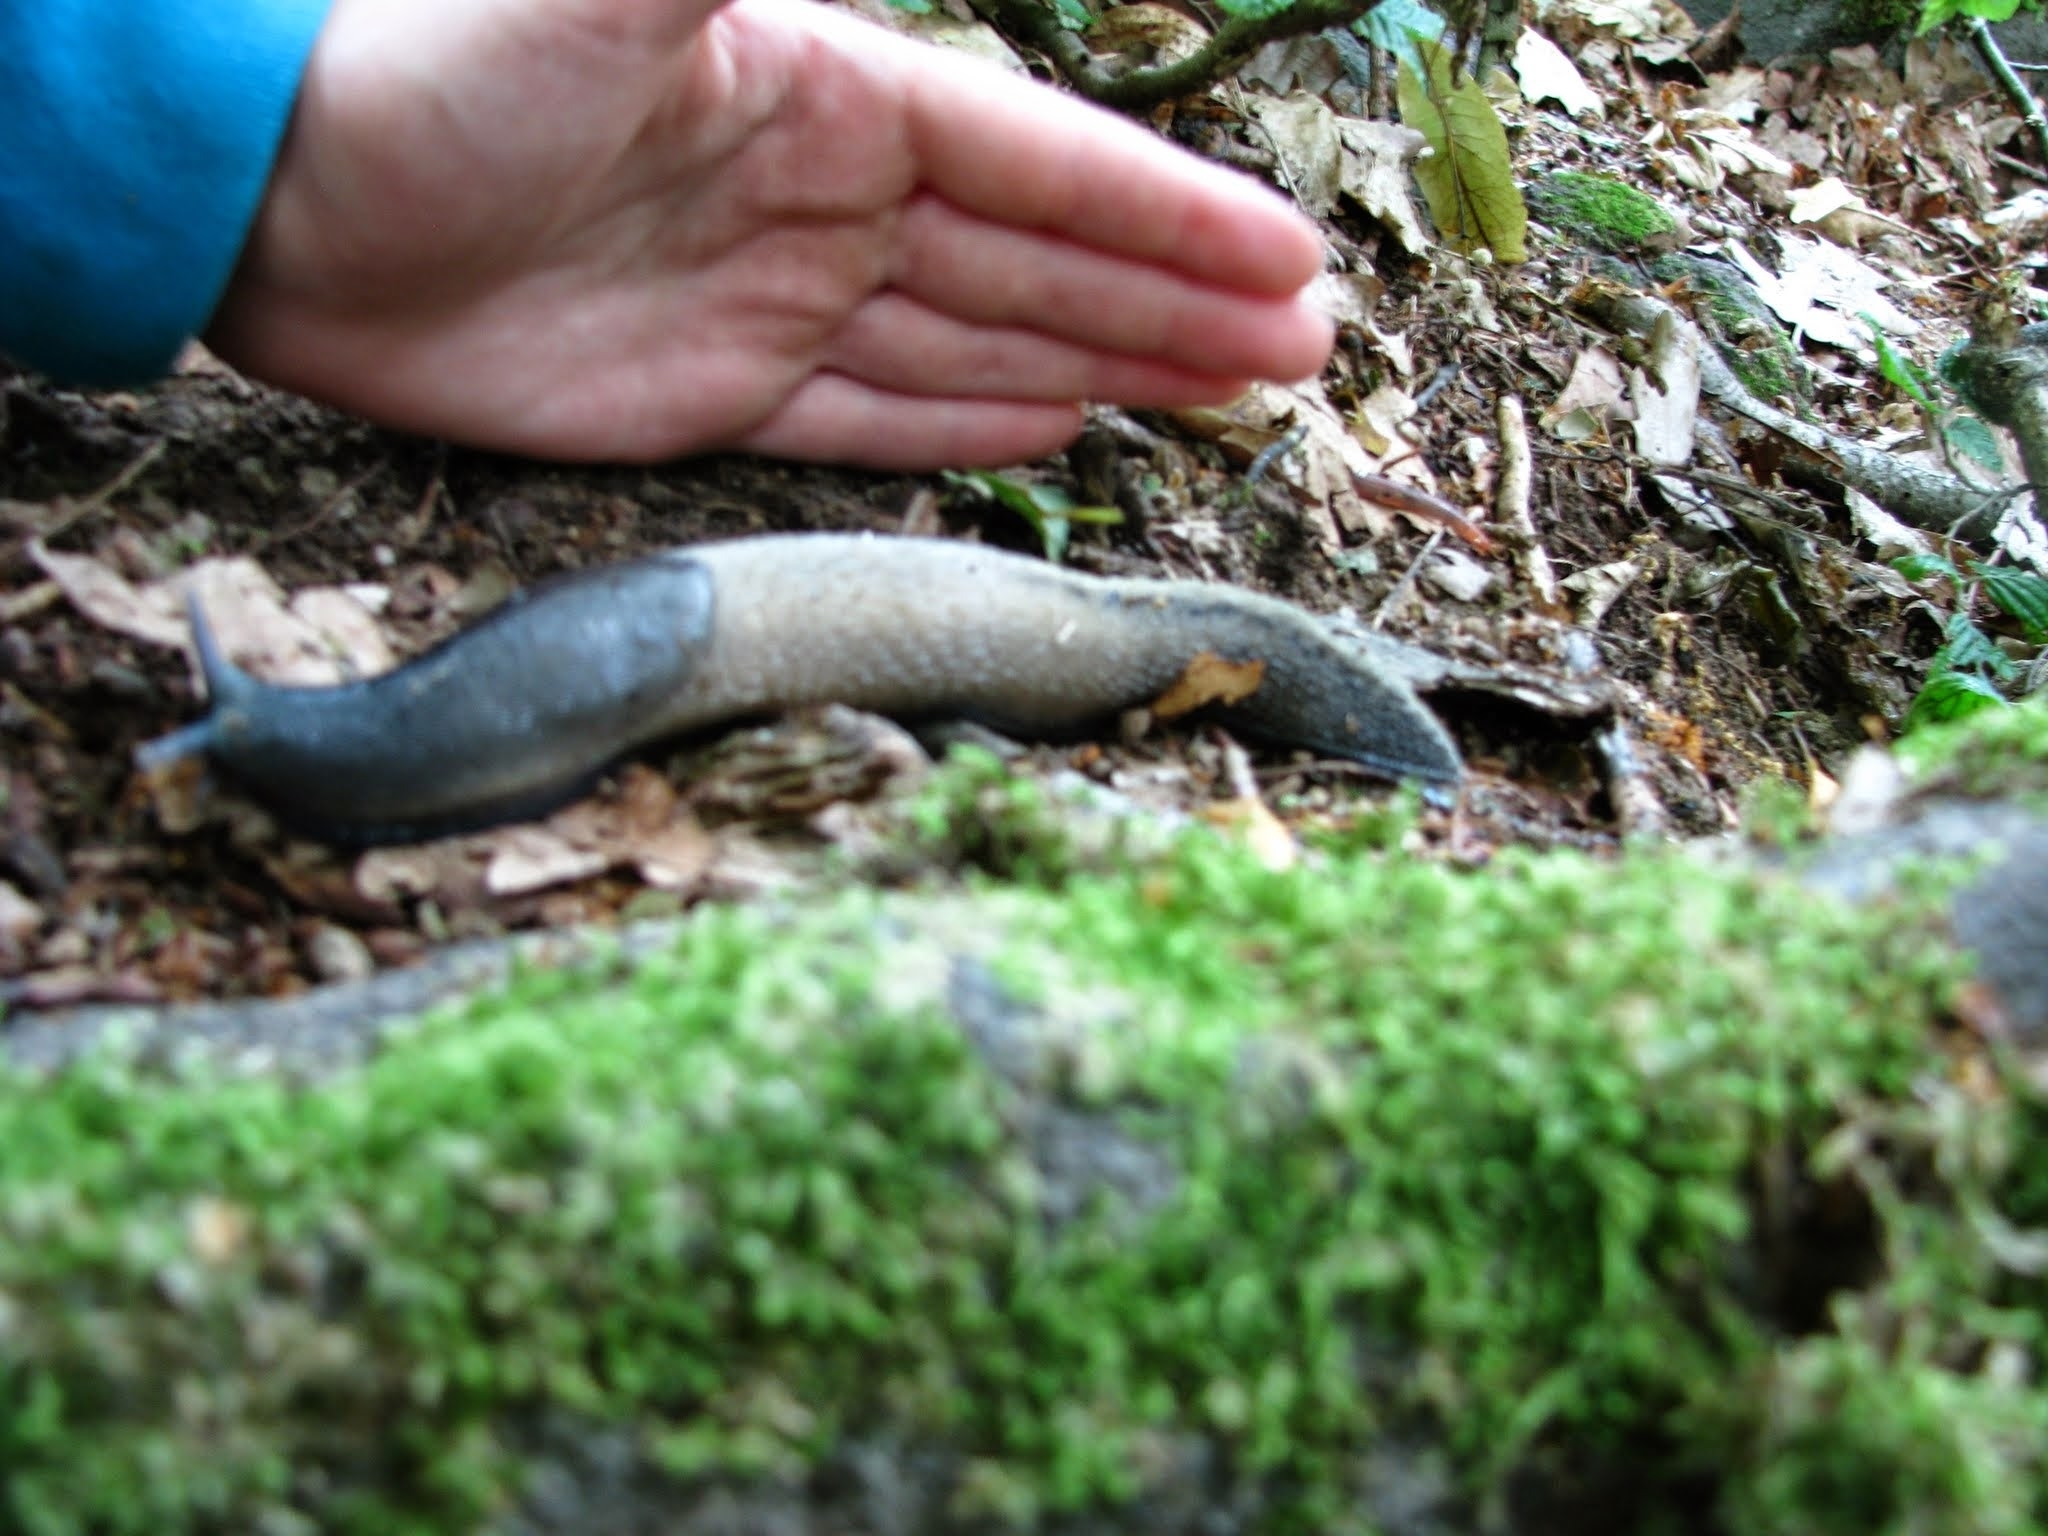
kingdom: Animalia
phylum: Mollusca
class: Gastropoda
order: Stylommatophora
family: Limacidae
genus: Limax
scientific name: Limax cinereoniger
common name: Ash-black slug
